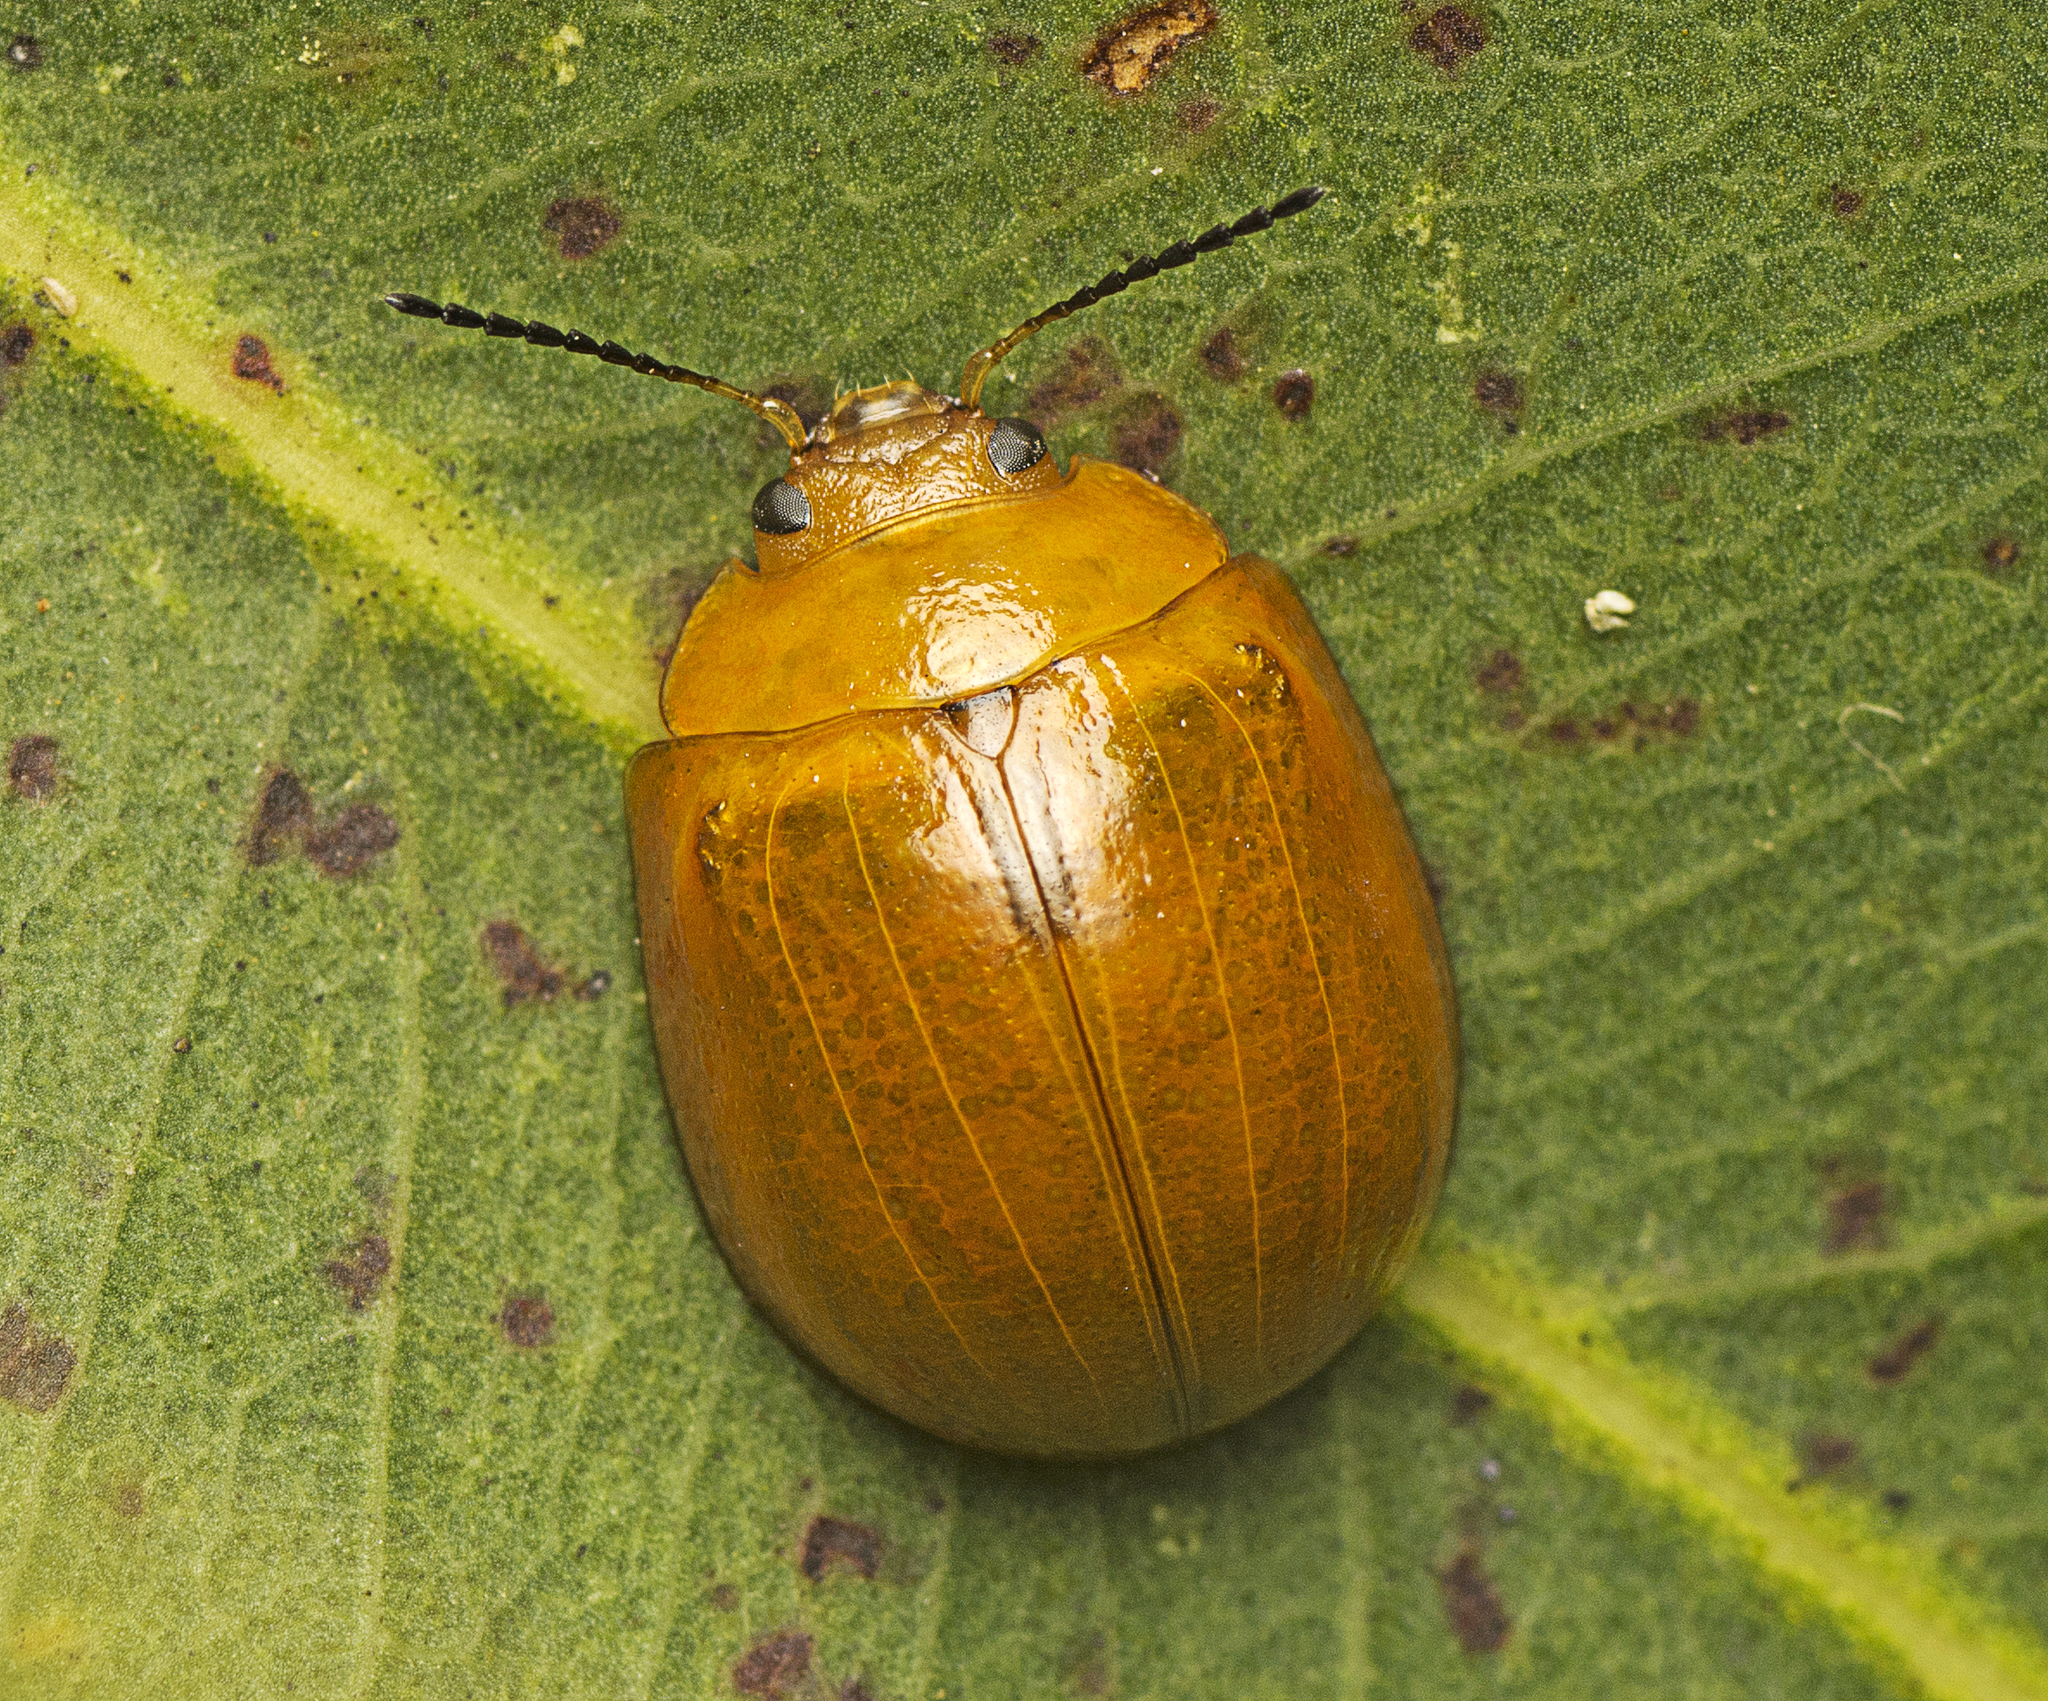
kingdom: Animalia
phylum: Arthropoda
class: Insecta
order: Coleoptera
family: Chrysomelidae
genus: Paropsisterna
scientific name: Paropsisterna cloelia
